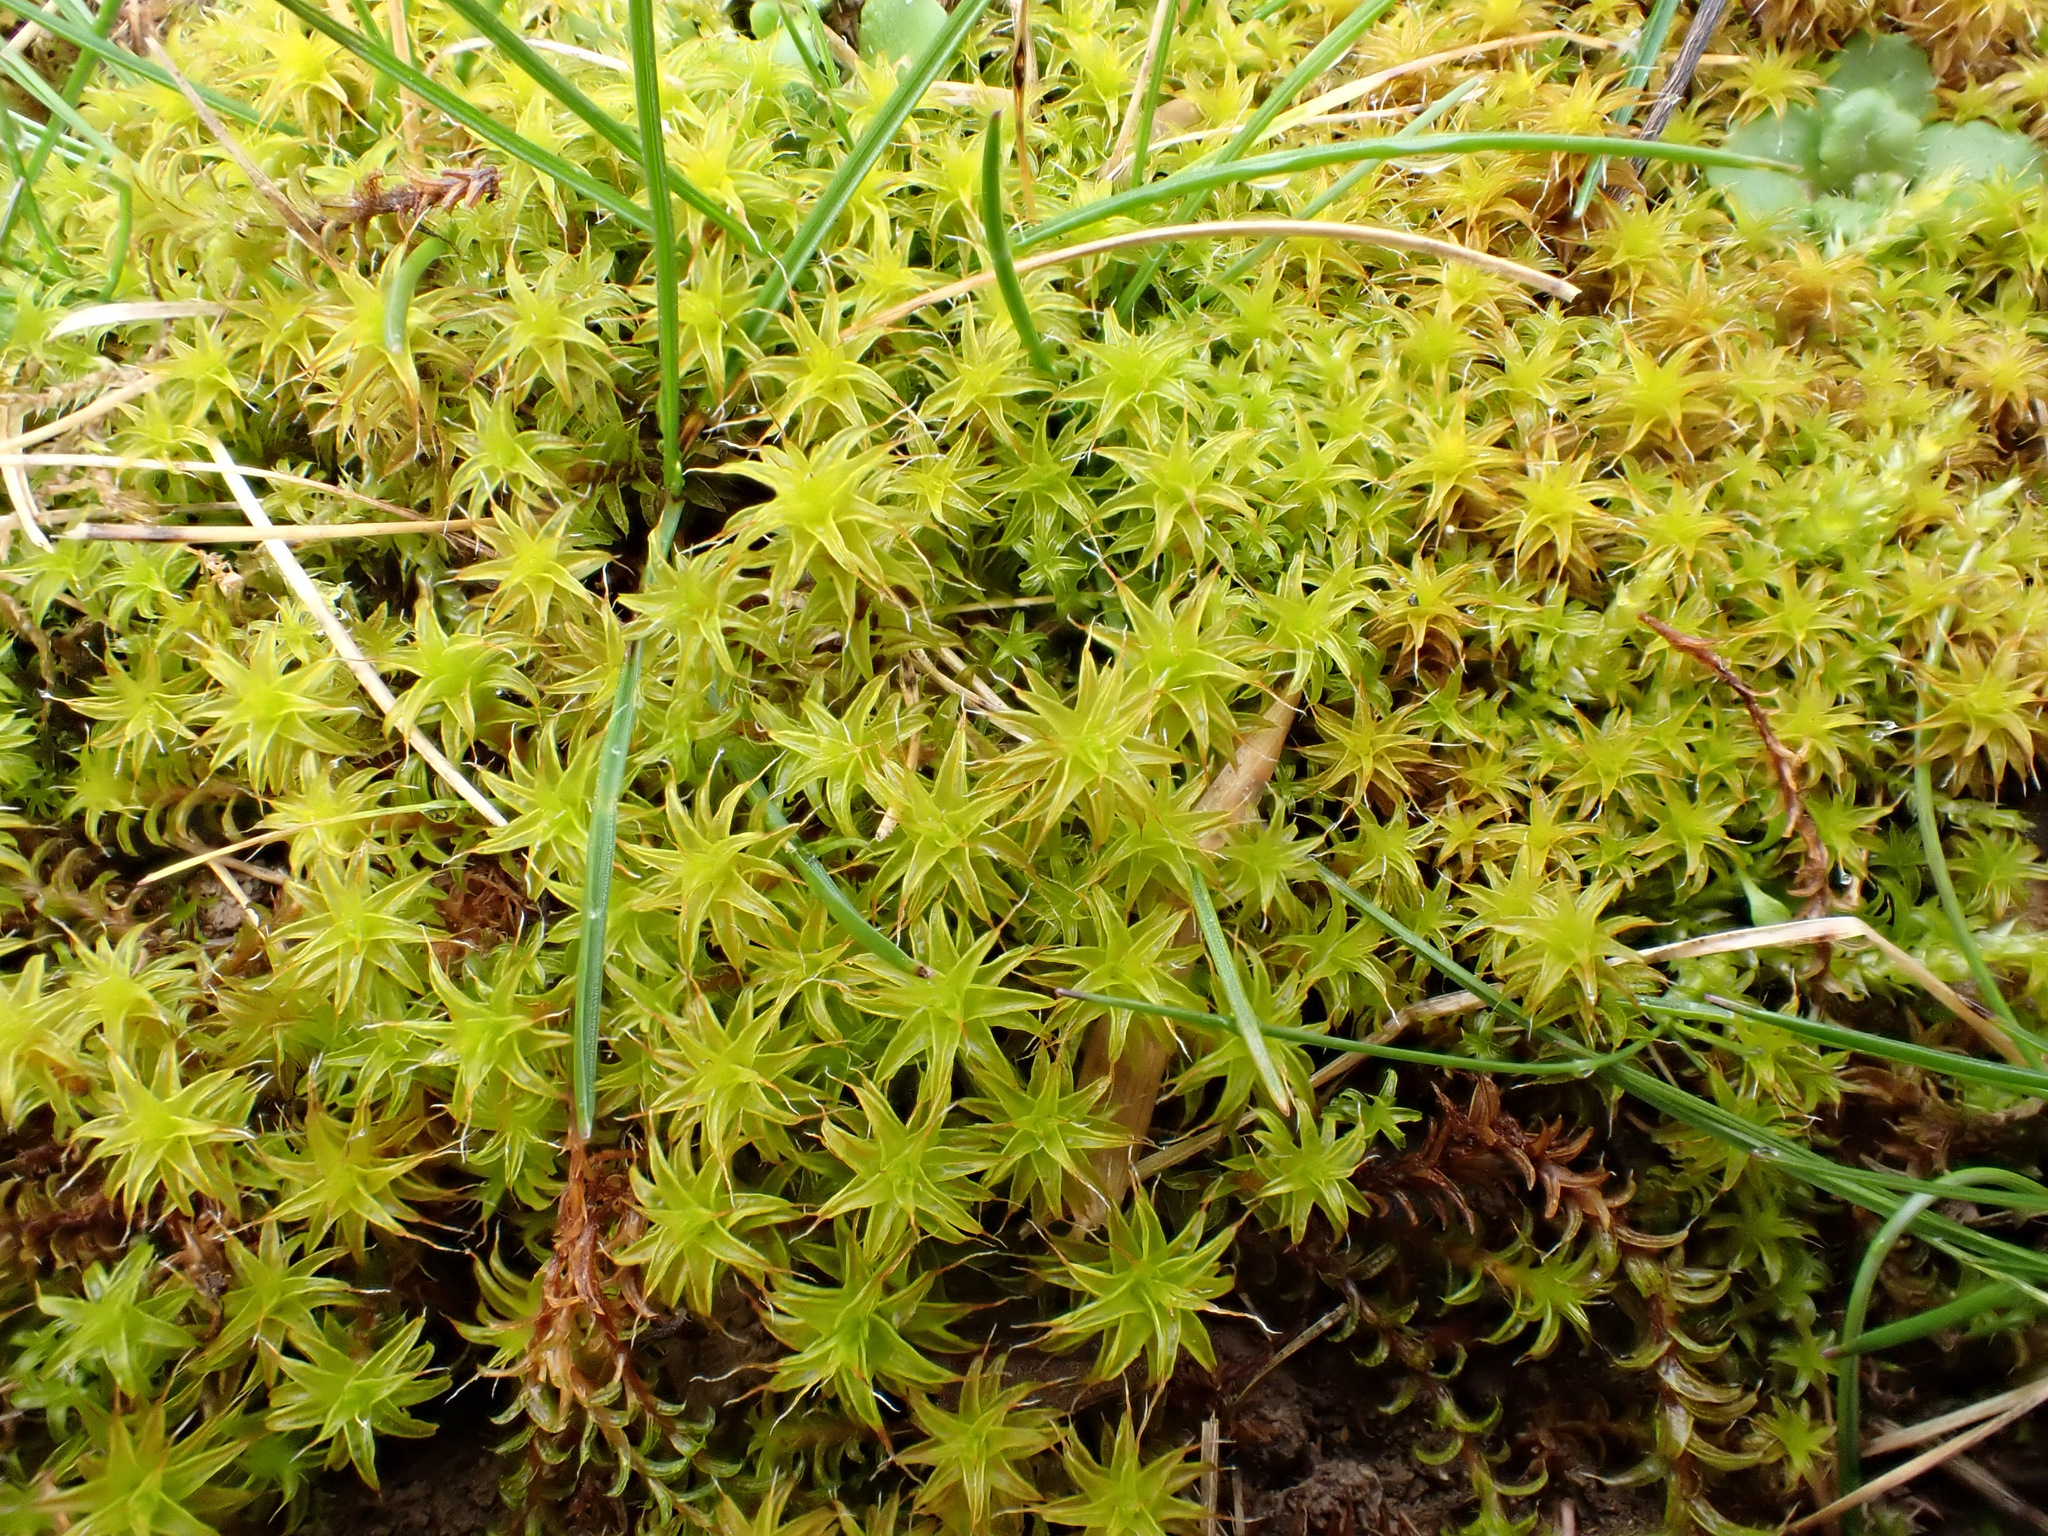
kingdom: Plantae
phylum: Bryophyta
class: Bryopsida
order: Pottiales
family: Pottiaceae
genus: Syntrichia
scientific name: Syntrichia ruralis
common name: Sidewalk screw moss
